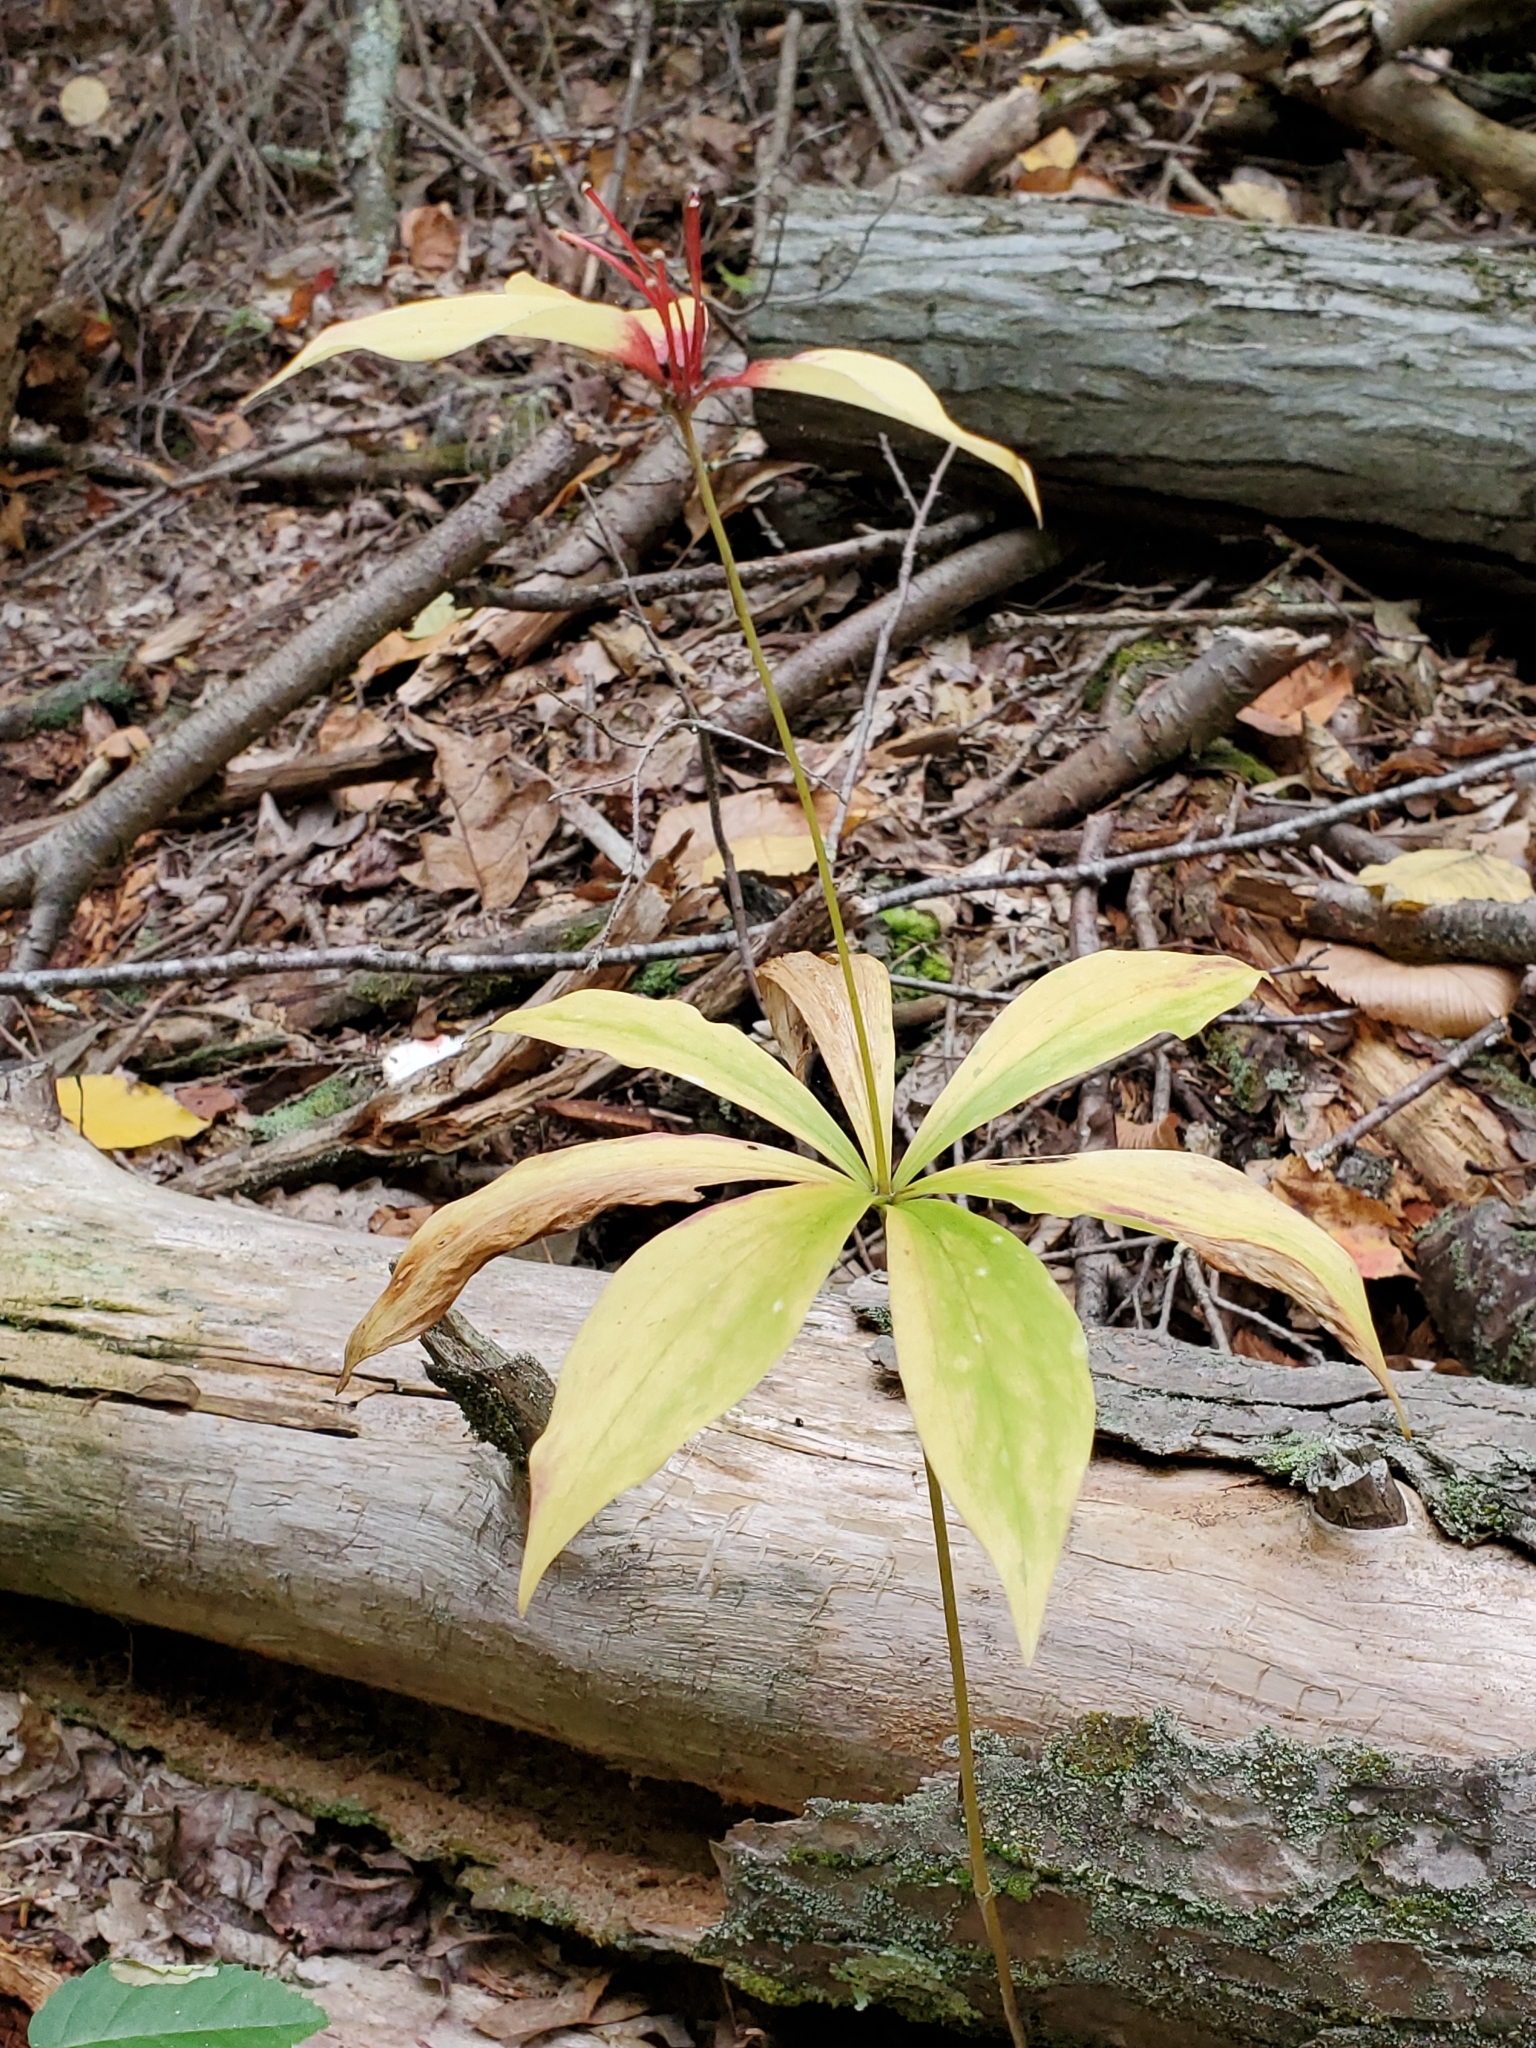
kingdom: Plantae
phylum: Tracheophyta
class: Liliopsida
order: Liliales
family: Liliaceae
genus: Medeola
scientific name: Medeola virginiana
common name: Indian cucumber-root
